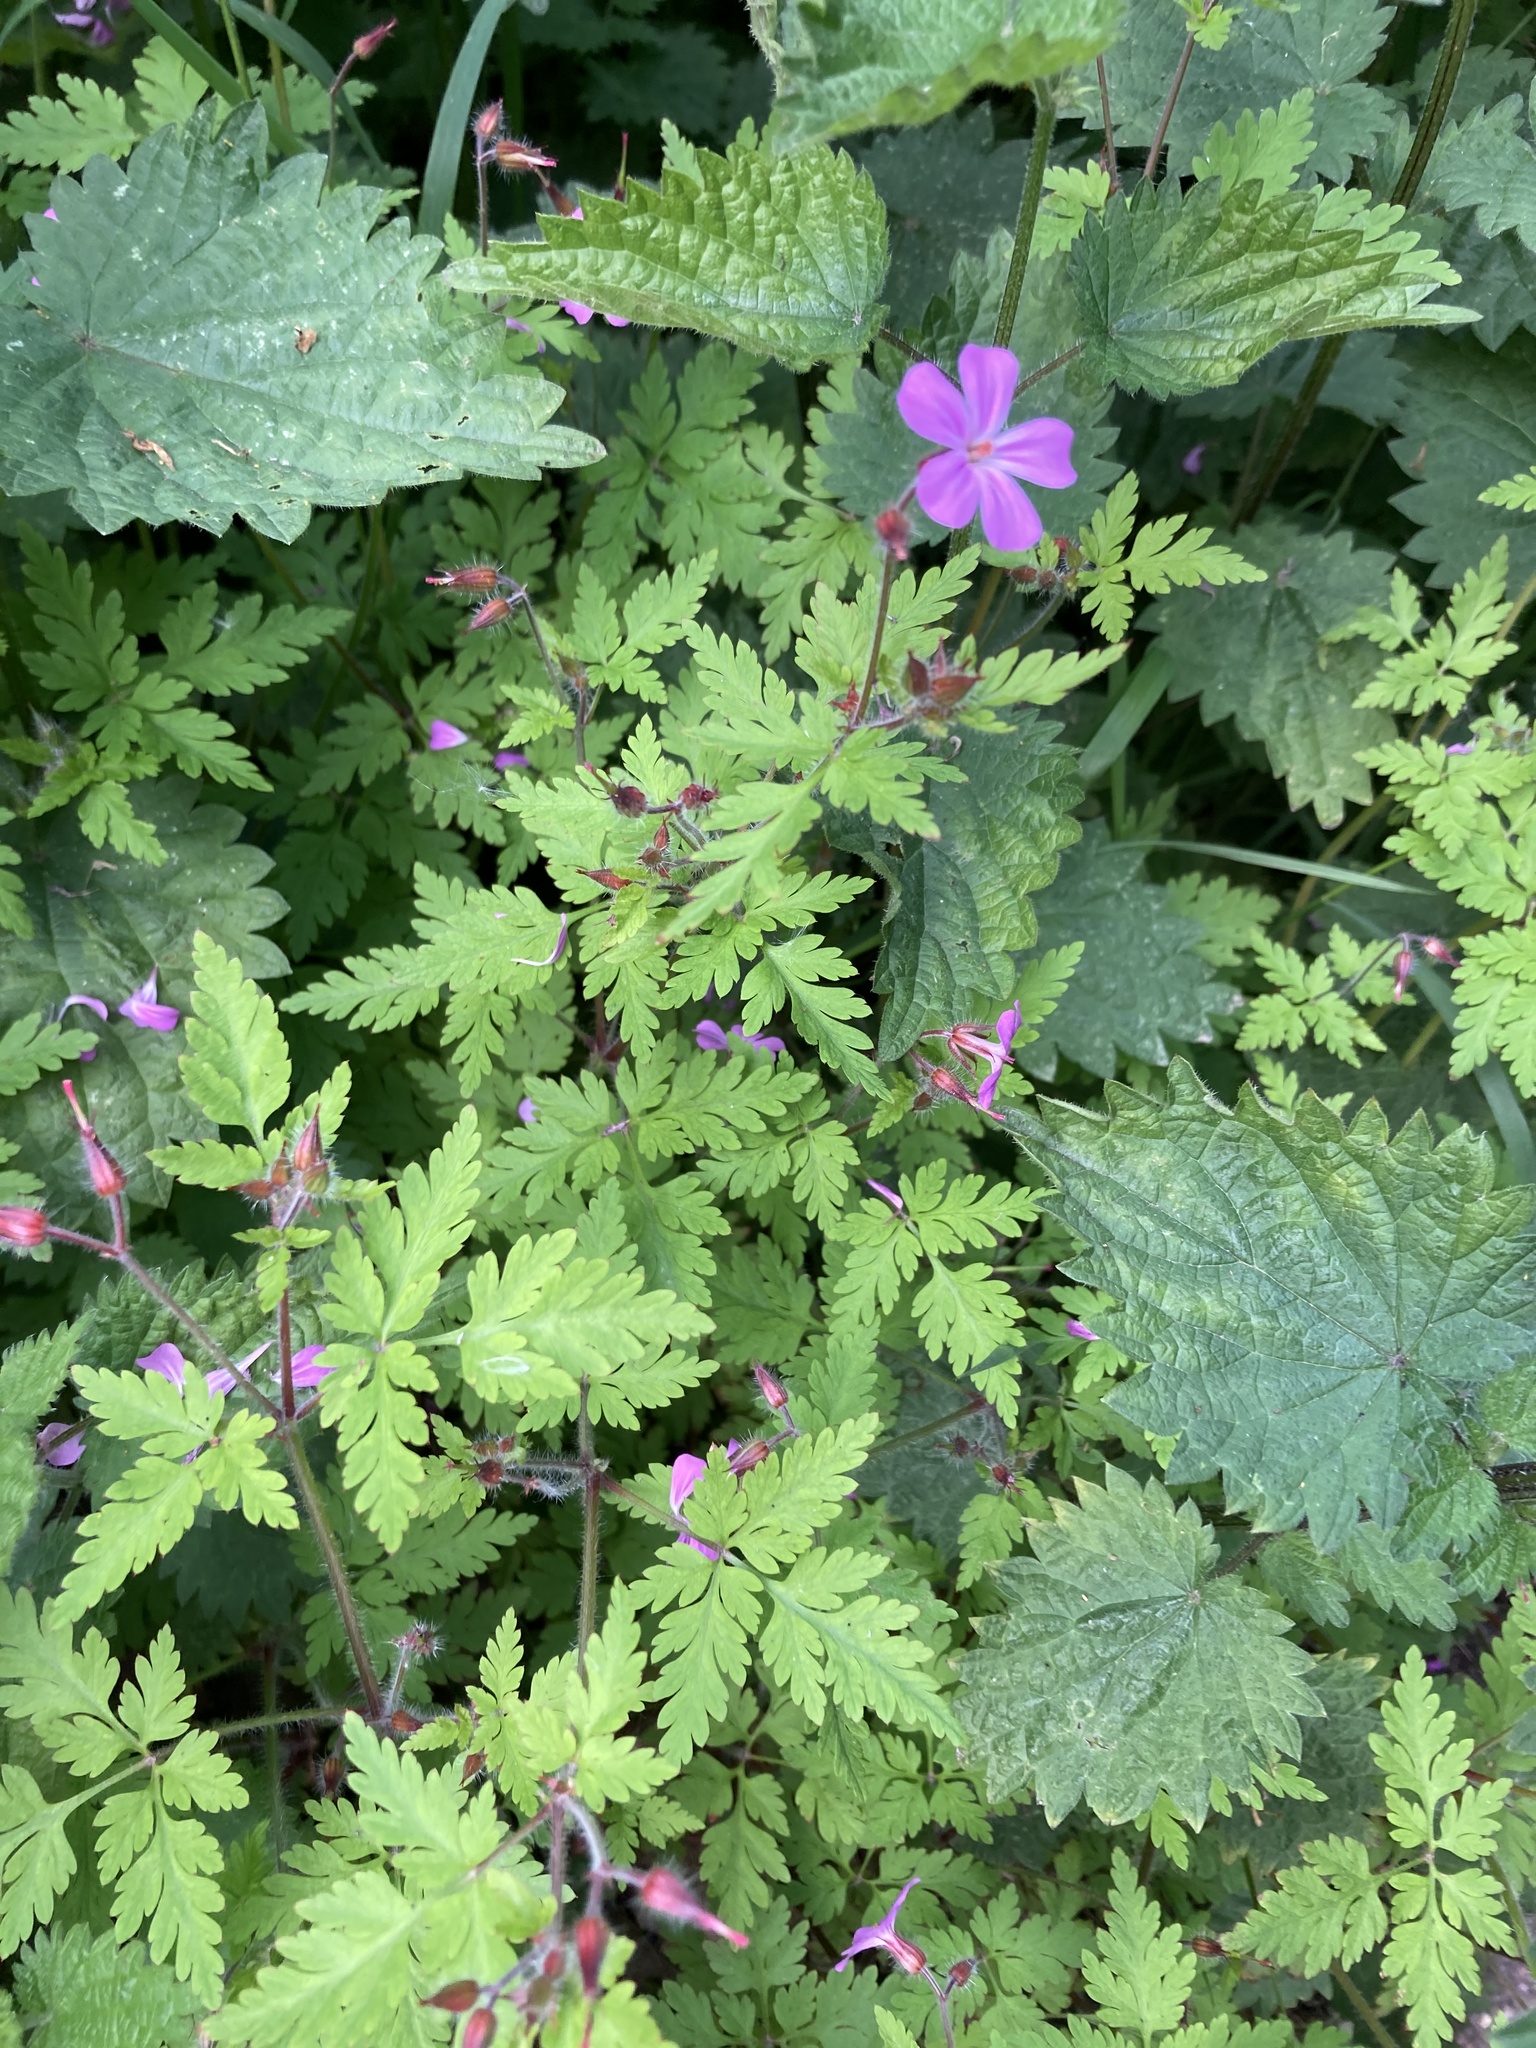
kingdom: Plantae
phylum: Tracheophyta
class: Magnoliopsida
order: Geraniales
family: Geraniaceae
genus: Geranium
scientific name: Geranium robertianum
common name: Herb-robert
